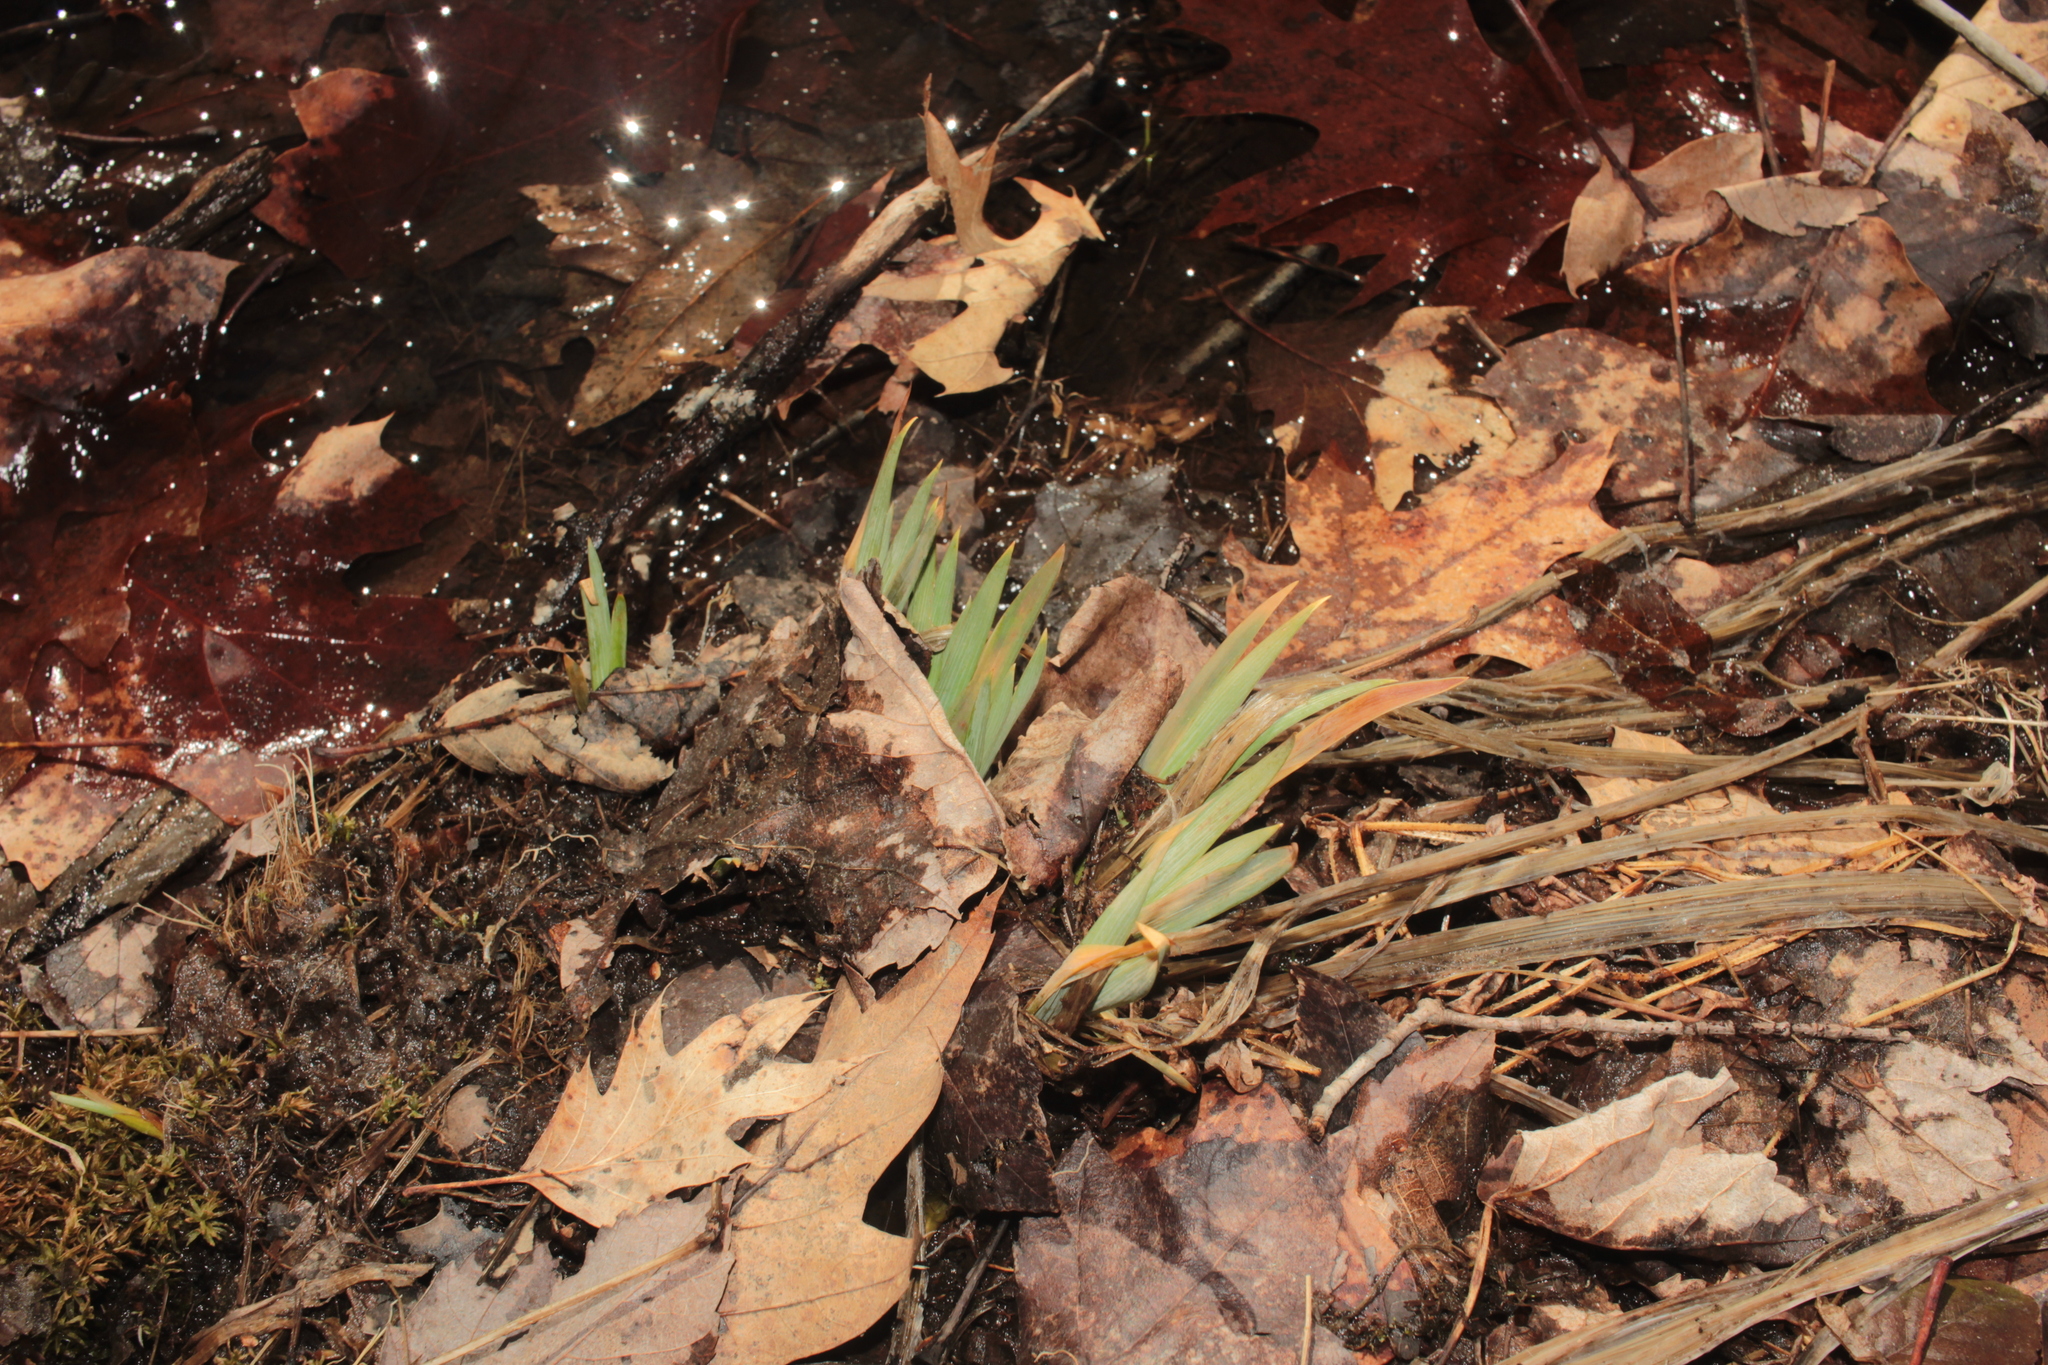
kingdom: Plantae
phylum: Tracheophyta
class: Liliopsida
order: Asparagales
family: Iridaceae
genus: Iris
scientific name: Iris
